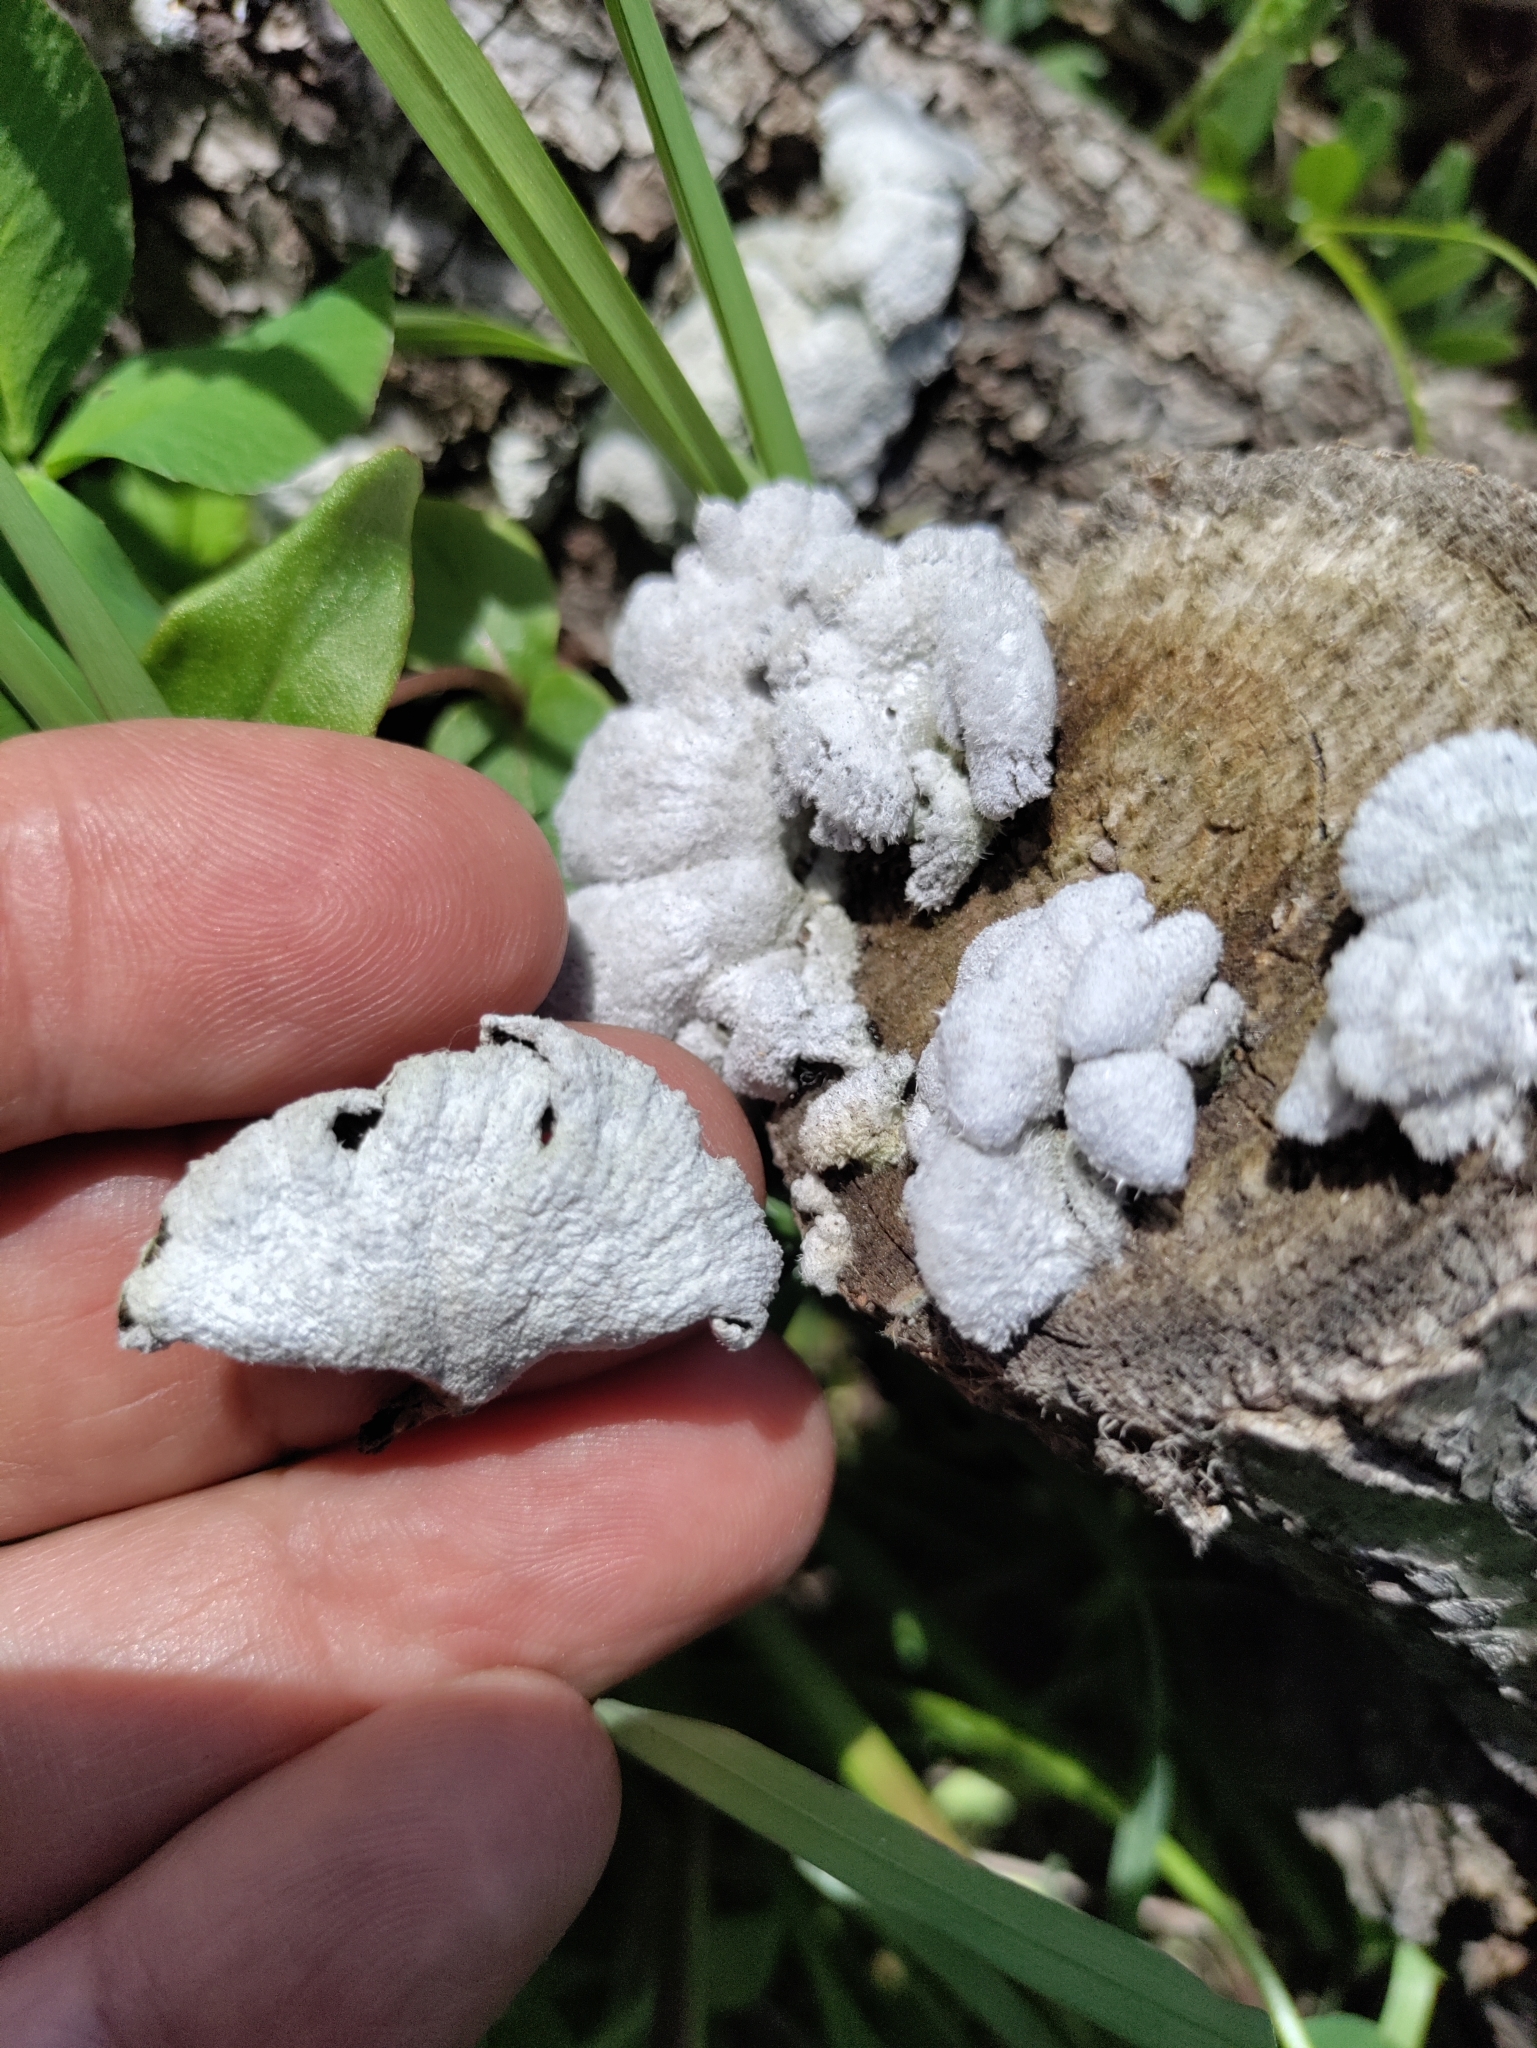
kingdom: Fungi
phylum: Basidiomycota
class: Agaricomycetes
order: Agaricales
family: Schizophyllaceae
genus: Schizophyllum
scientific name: Schizophyllum commune
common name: Common porecrust
